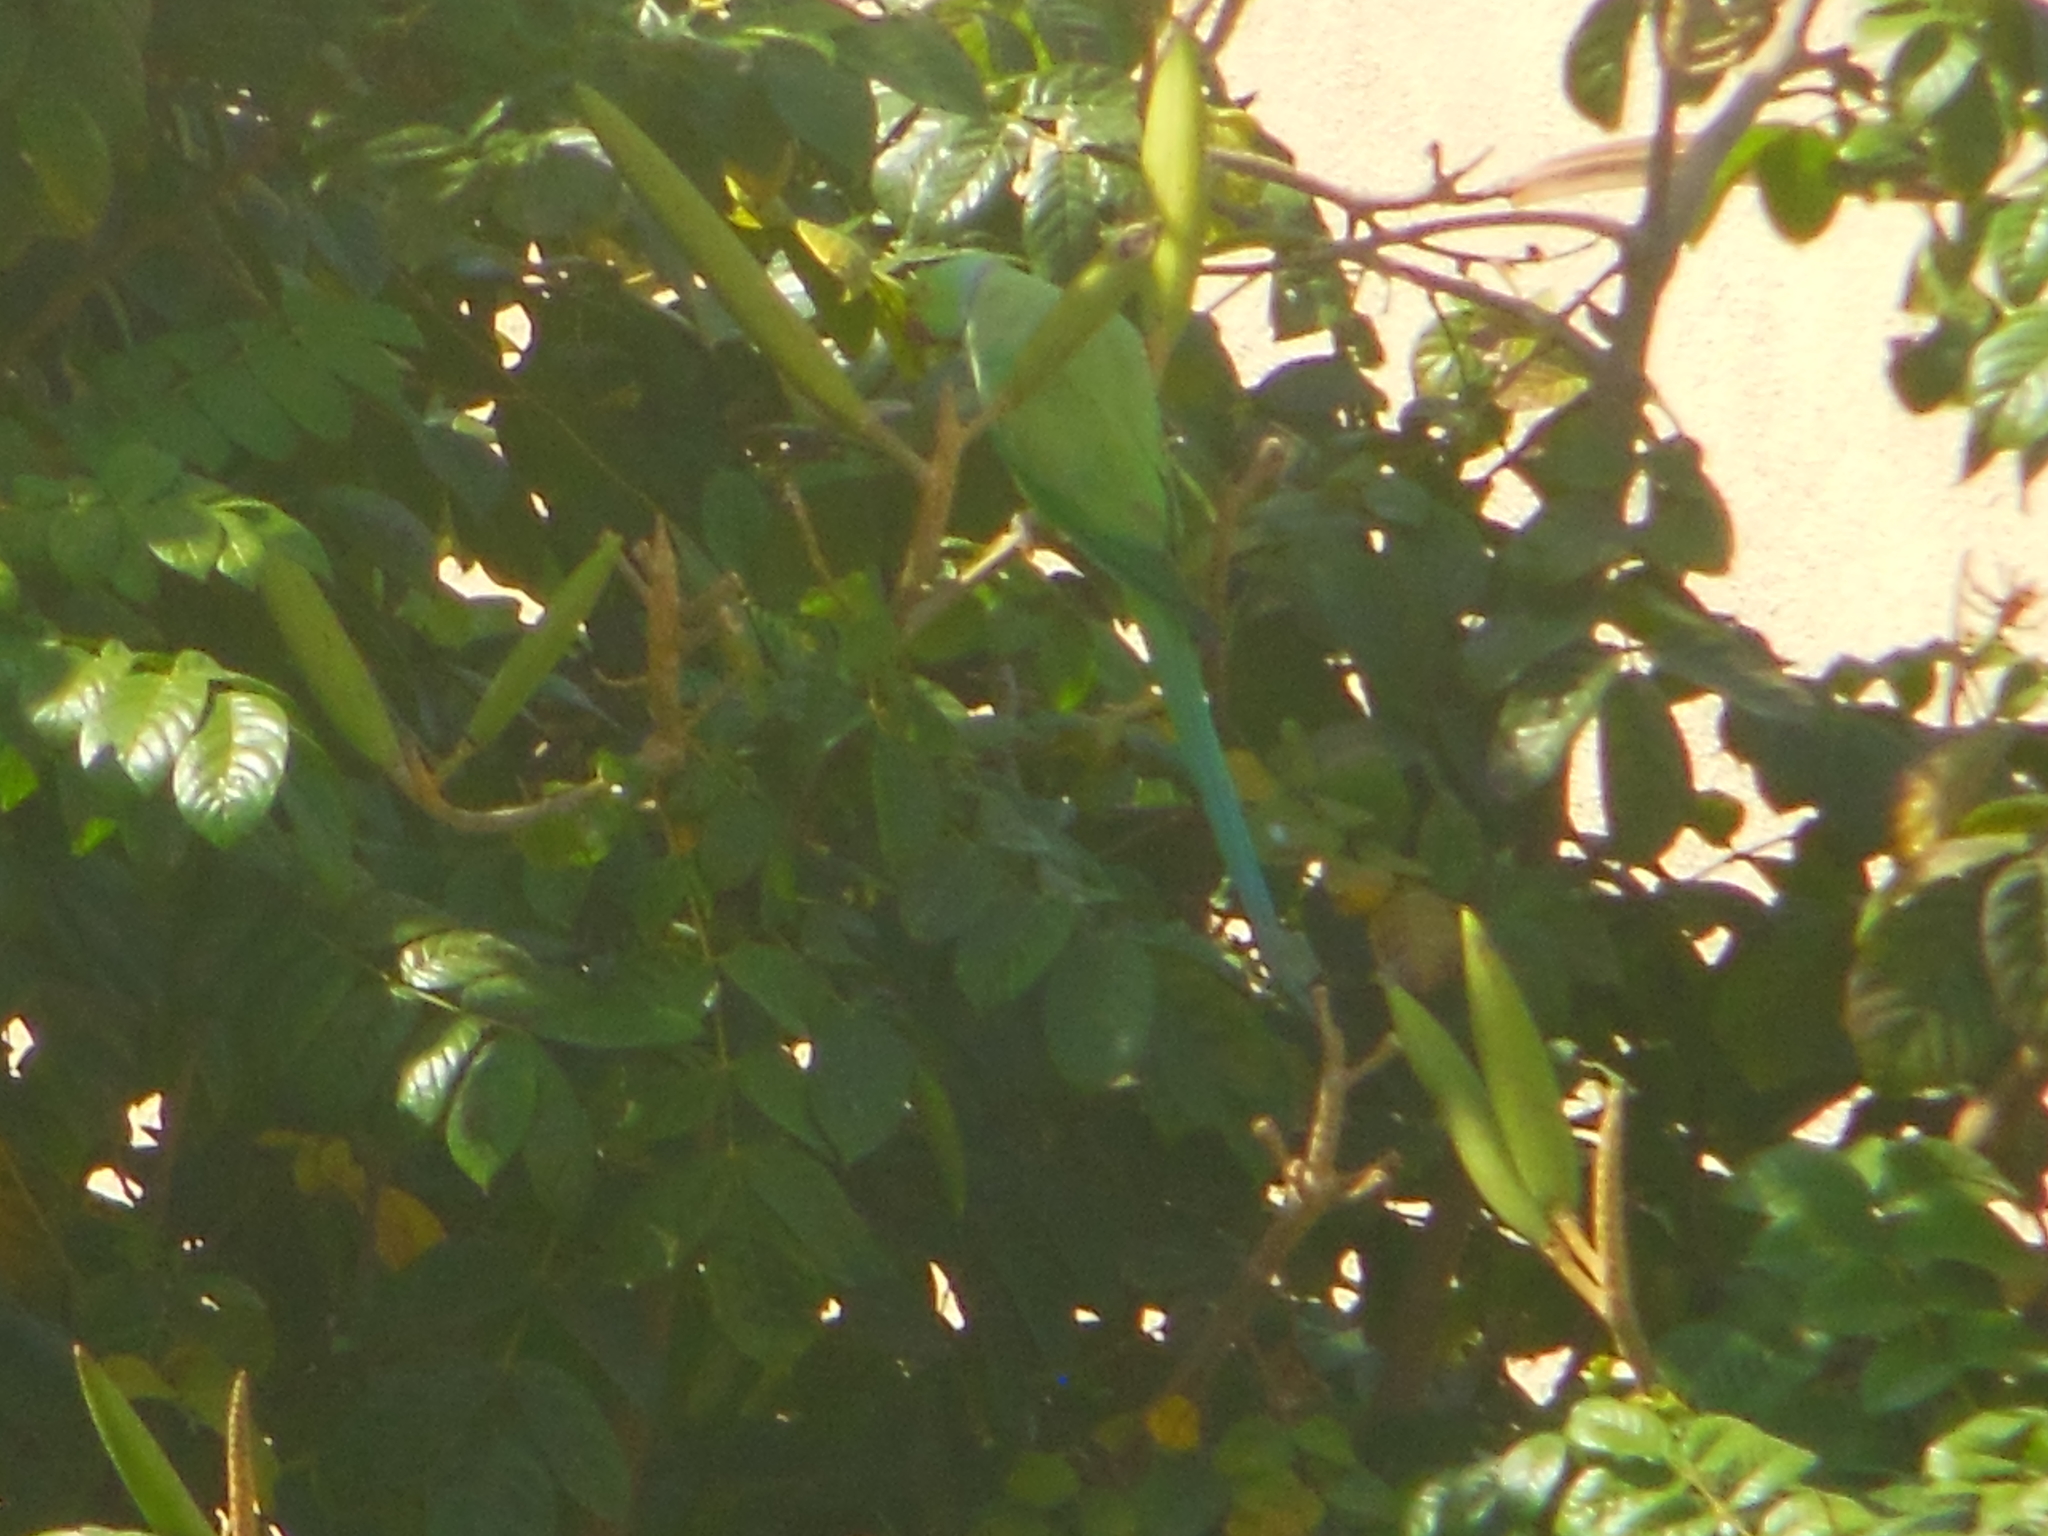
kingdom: Animalia
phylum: Chordata
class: Aves
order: Psittaciformes
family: Psittacidae
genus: Psittacula
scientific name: Psittacula krameri
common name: Rose-ringed parakeet
